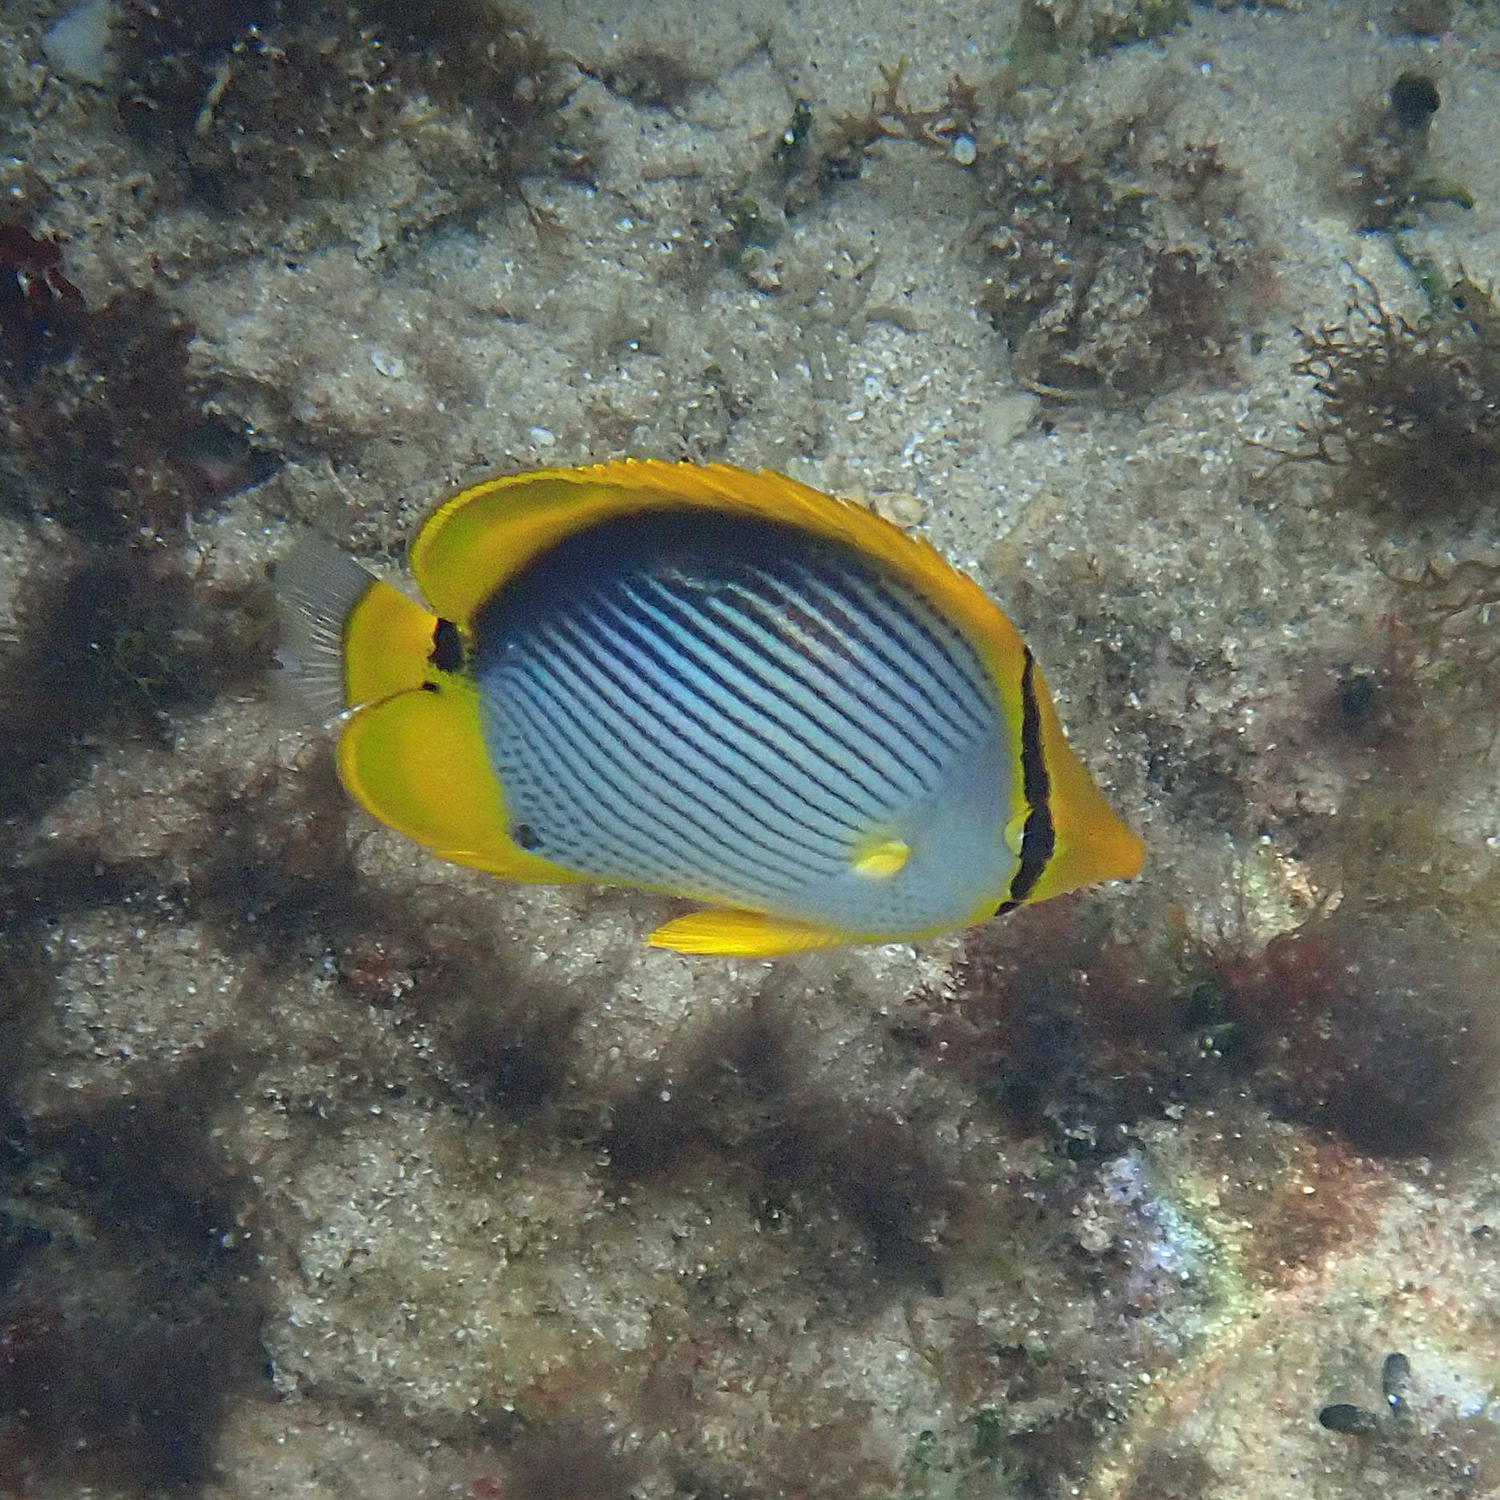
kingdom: Animalia
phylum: Chordata
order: Perciformes
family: Chaetodontidae
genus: Chaetodon
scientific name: Chaetodon melannotus
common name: Blackback butterflyfish
